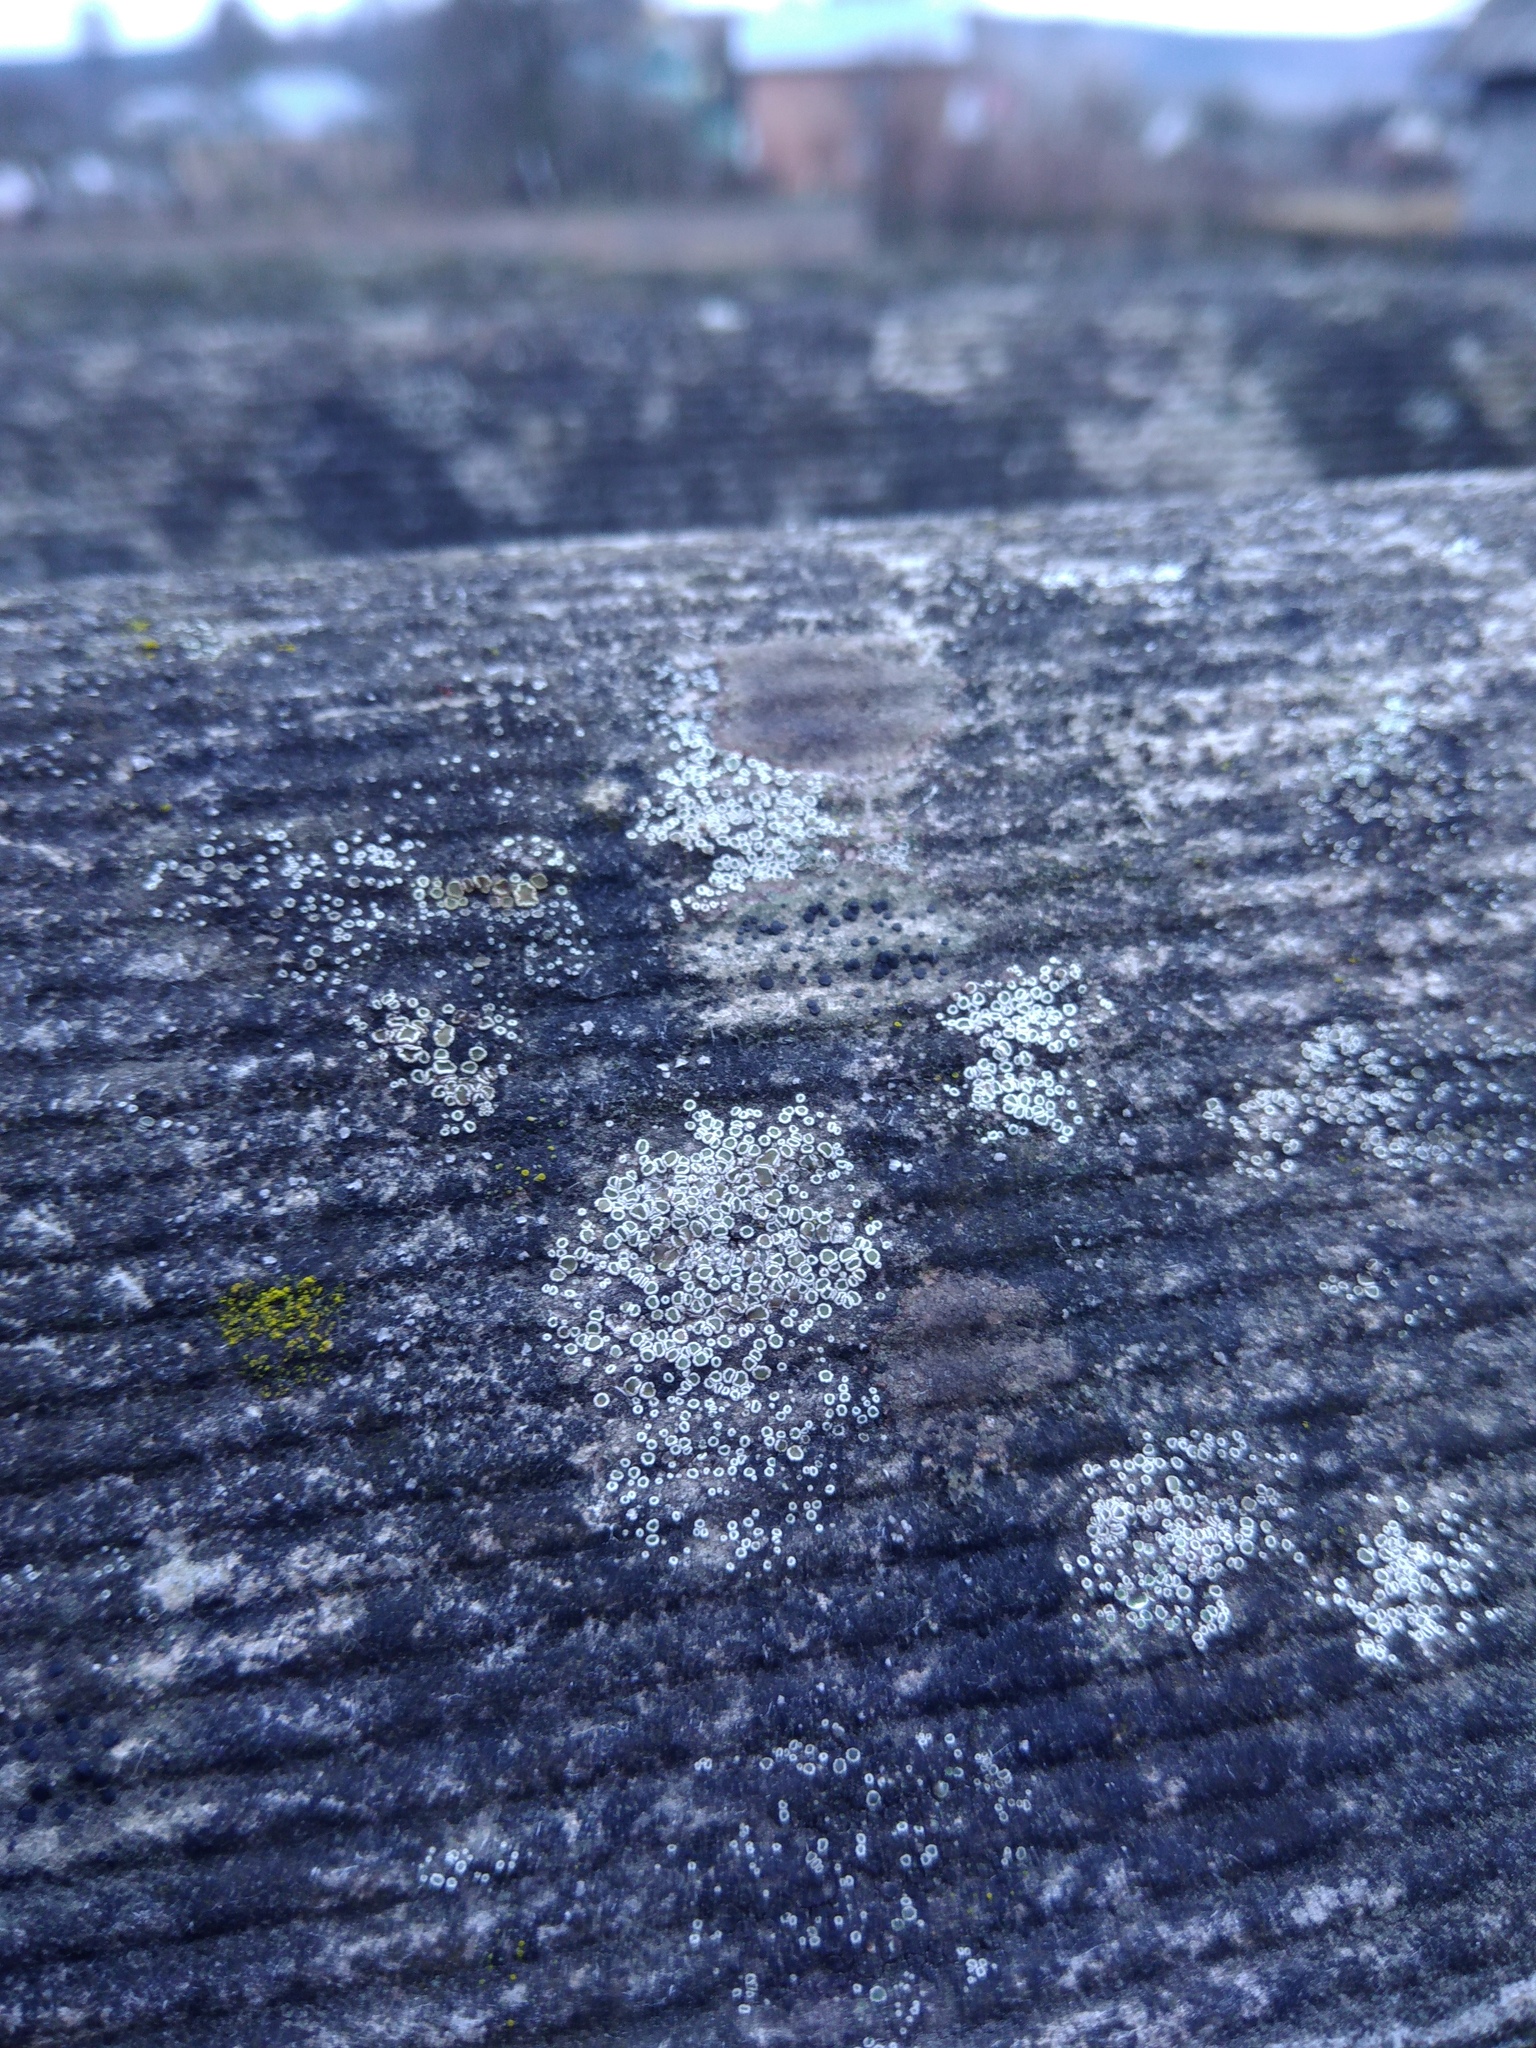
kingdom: Fungi
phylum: Ascomycota
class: Lecanoromycetes
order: Lecanorales
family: Lecanoraceae
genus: Polyozosia
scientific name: Polyozosia semipallida
